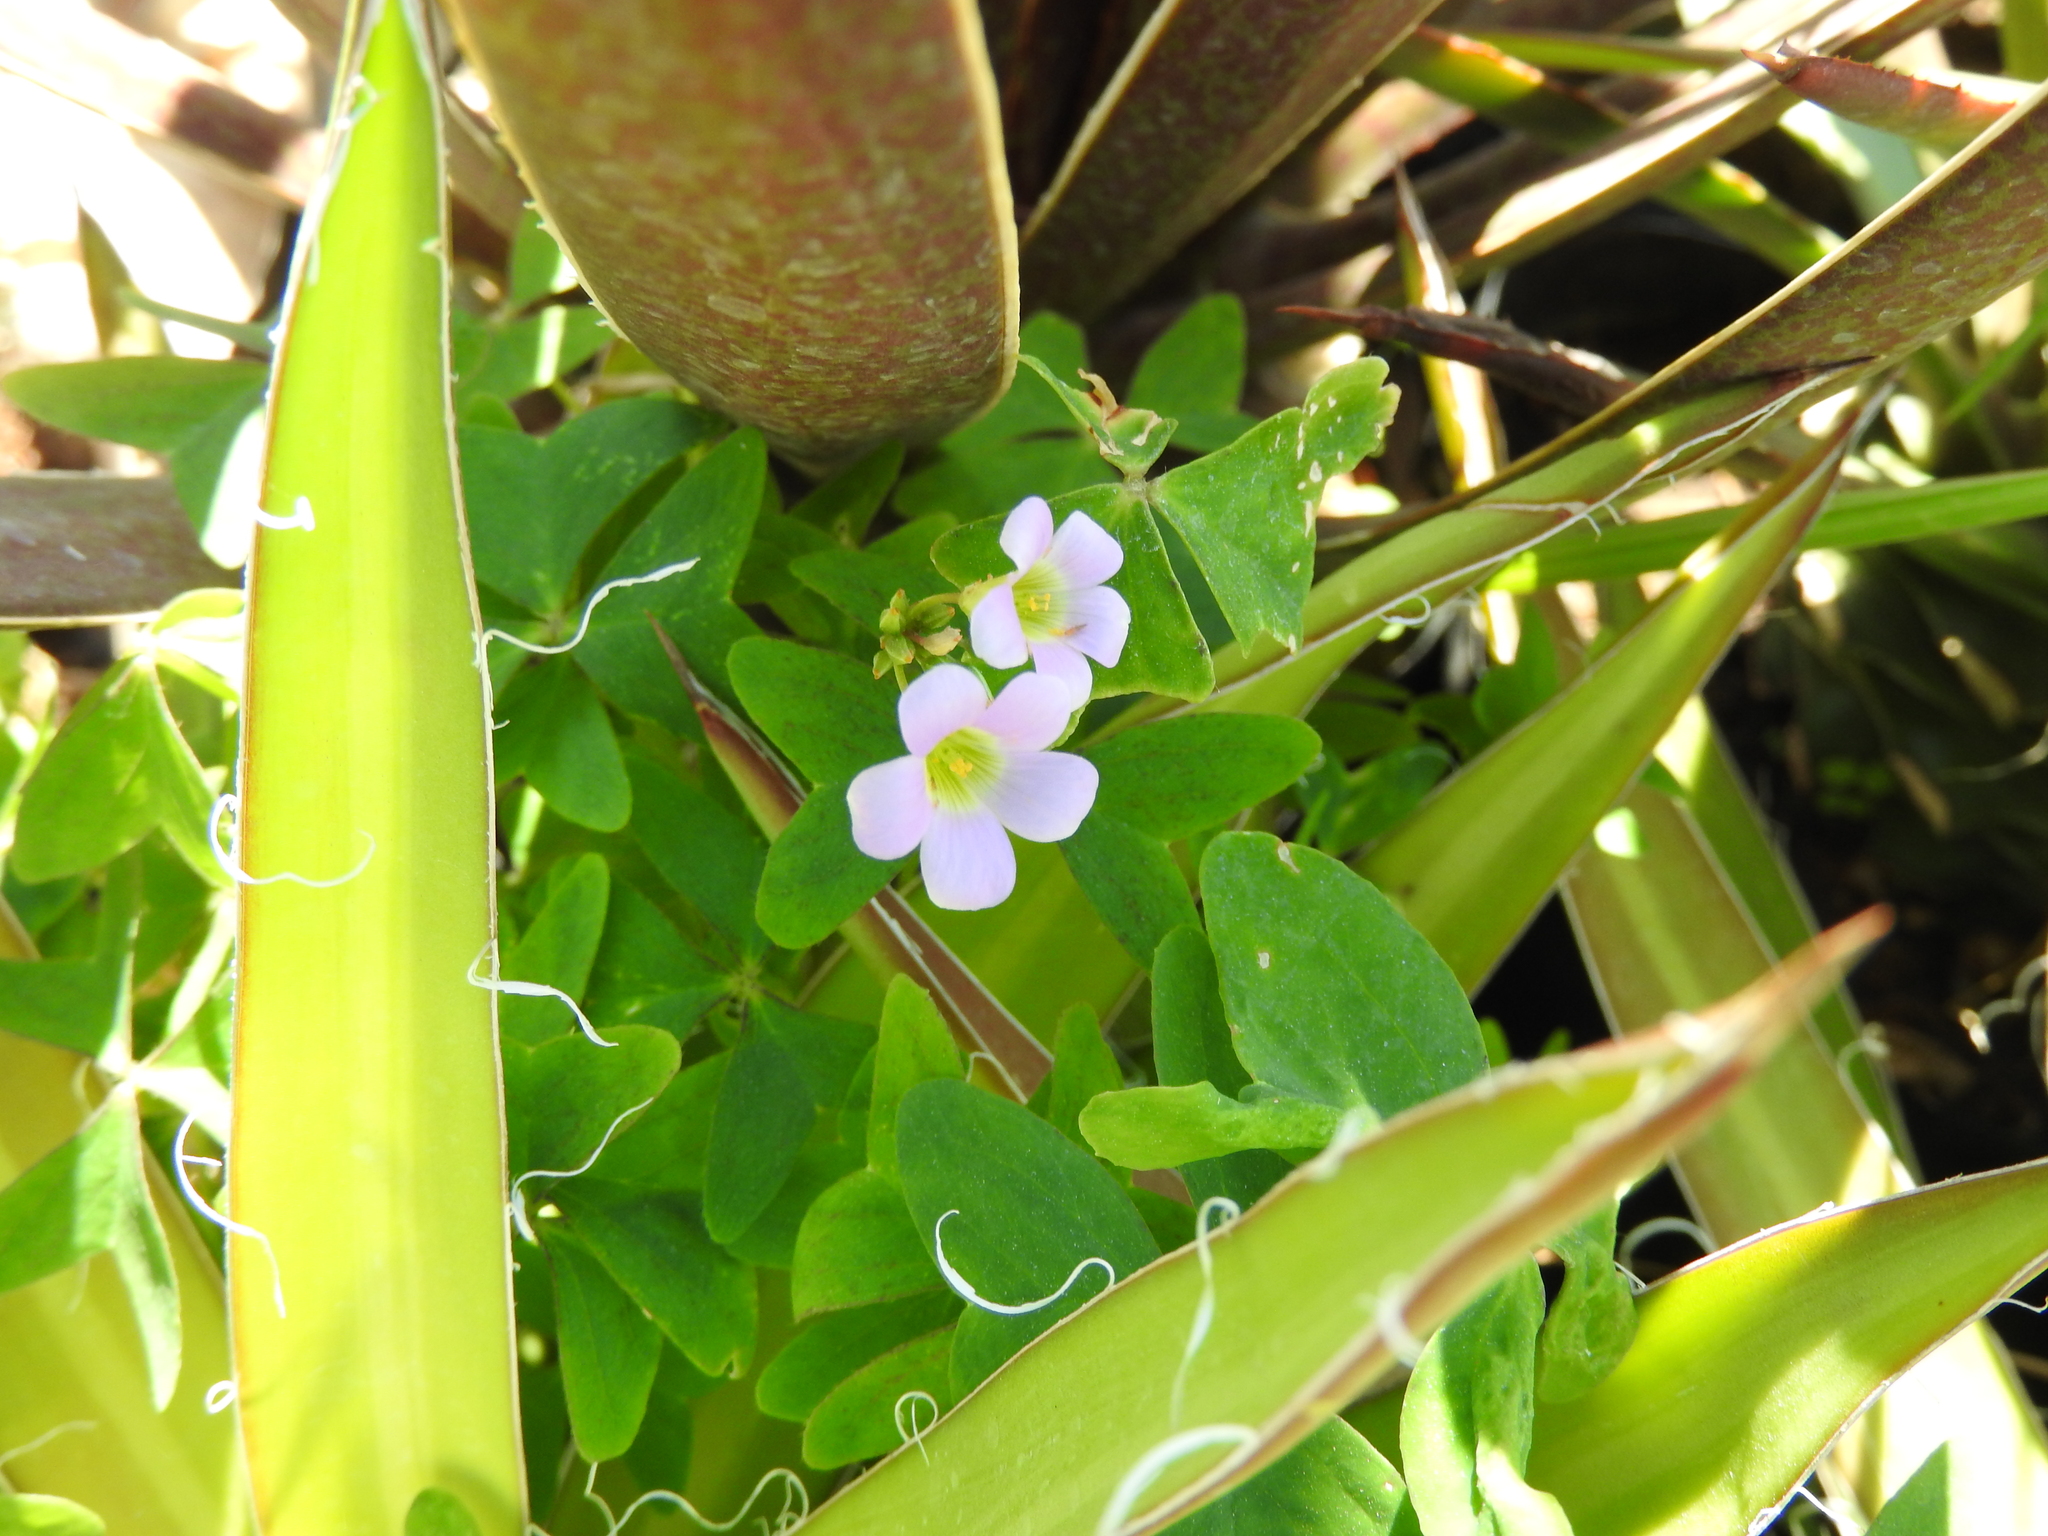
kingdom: Plantae
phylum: Tracheophyta
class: Magnoliopsida
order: Oxalidales
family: Oxalidaceae
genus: Oxalis
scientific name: Oxalis latifolia
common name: Garden pink-sorrel
